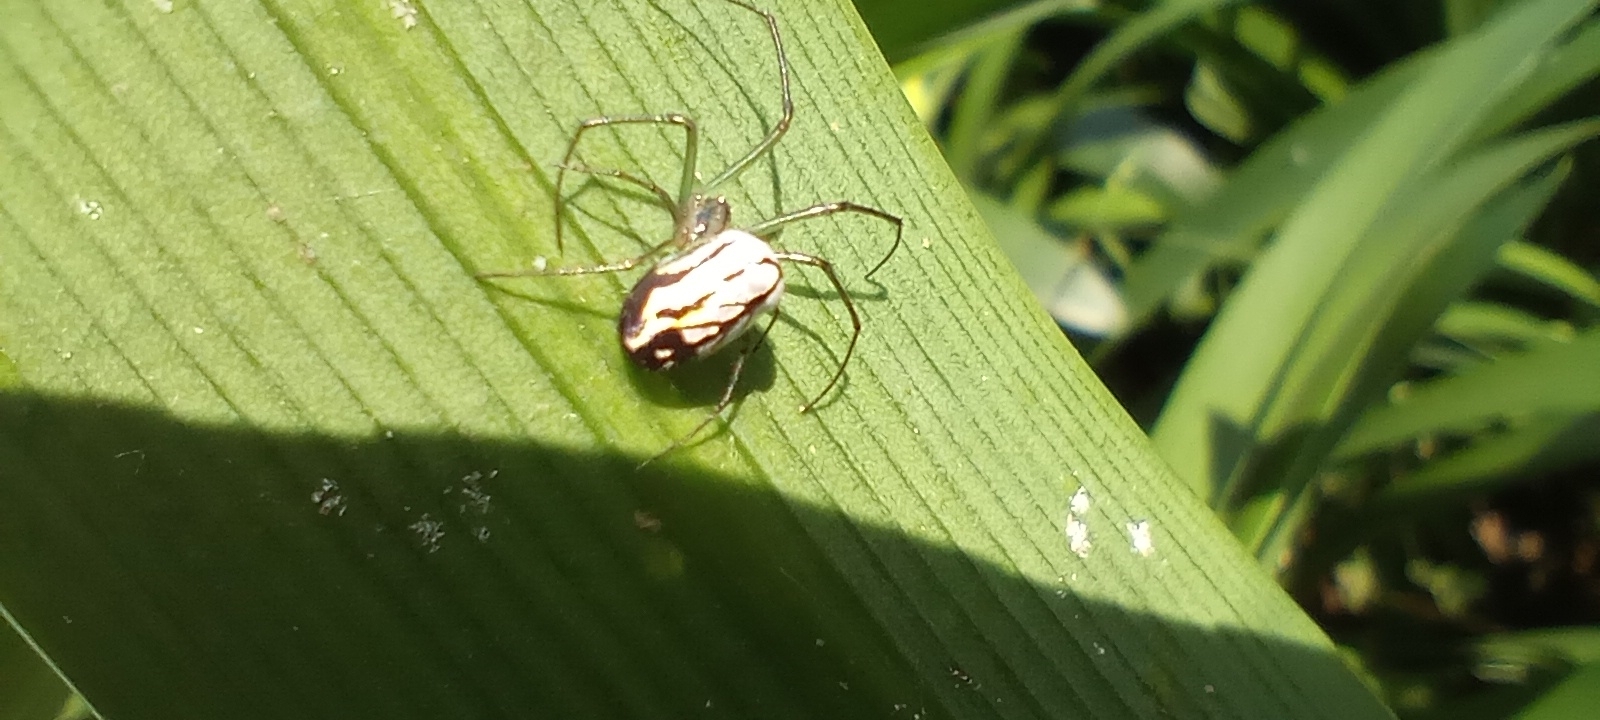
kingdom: Animalia
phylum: Arthropoda
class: Arachnida
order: Araneae
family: Tetragnathidae
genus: Leucauge
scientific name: Leucauge volupis
